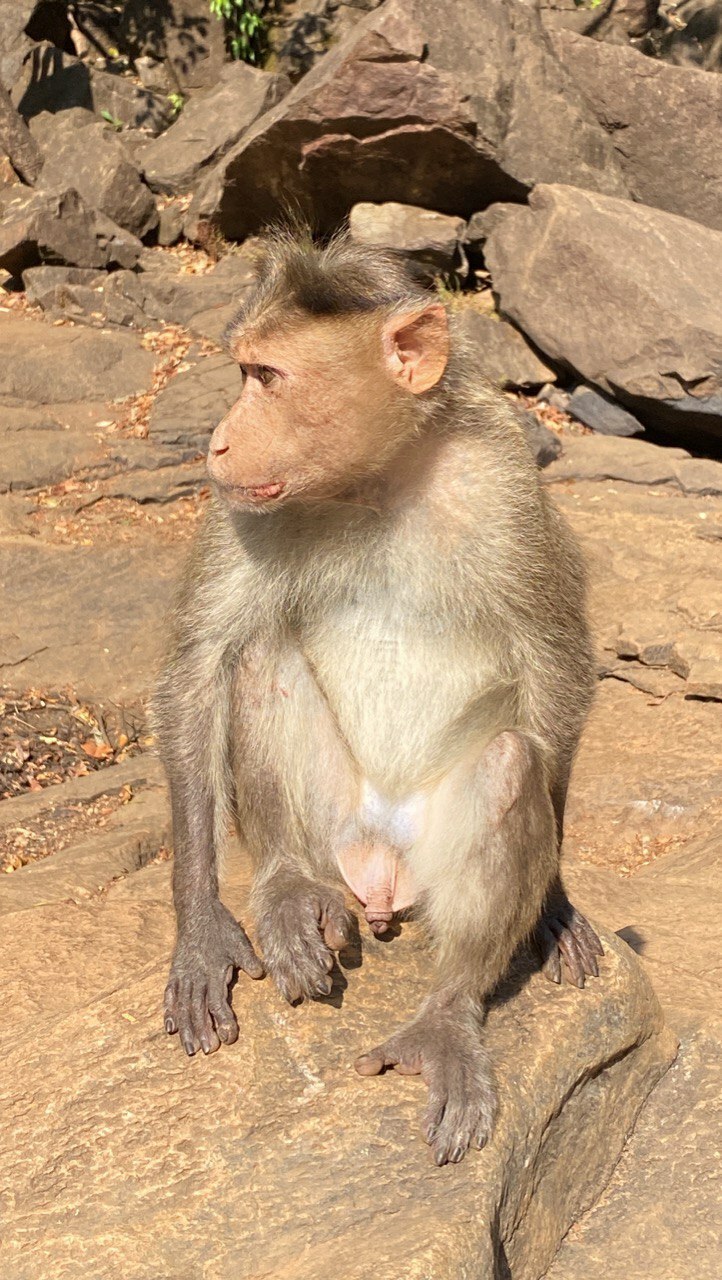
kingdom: Animalia
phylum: Chordata
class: Mammalia
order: Primates
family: Cercopithecidae
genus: Macaca
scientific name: Macaca radiata
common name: Bonnet macaque
